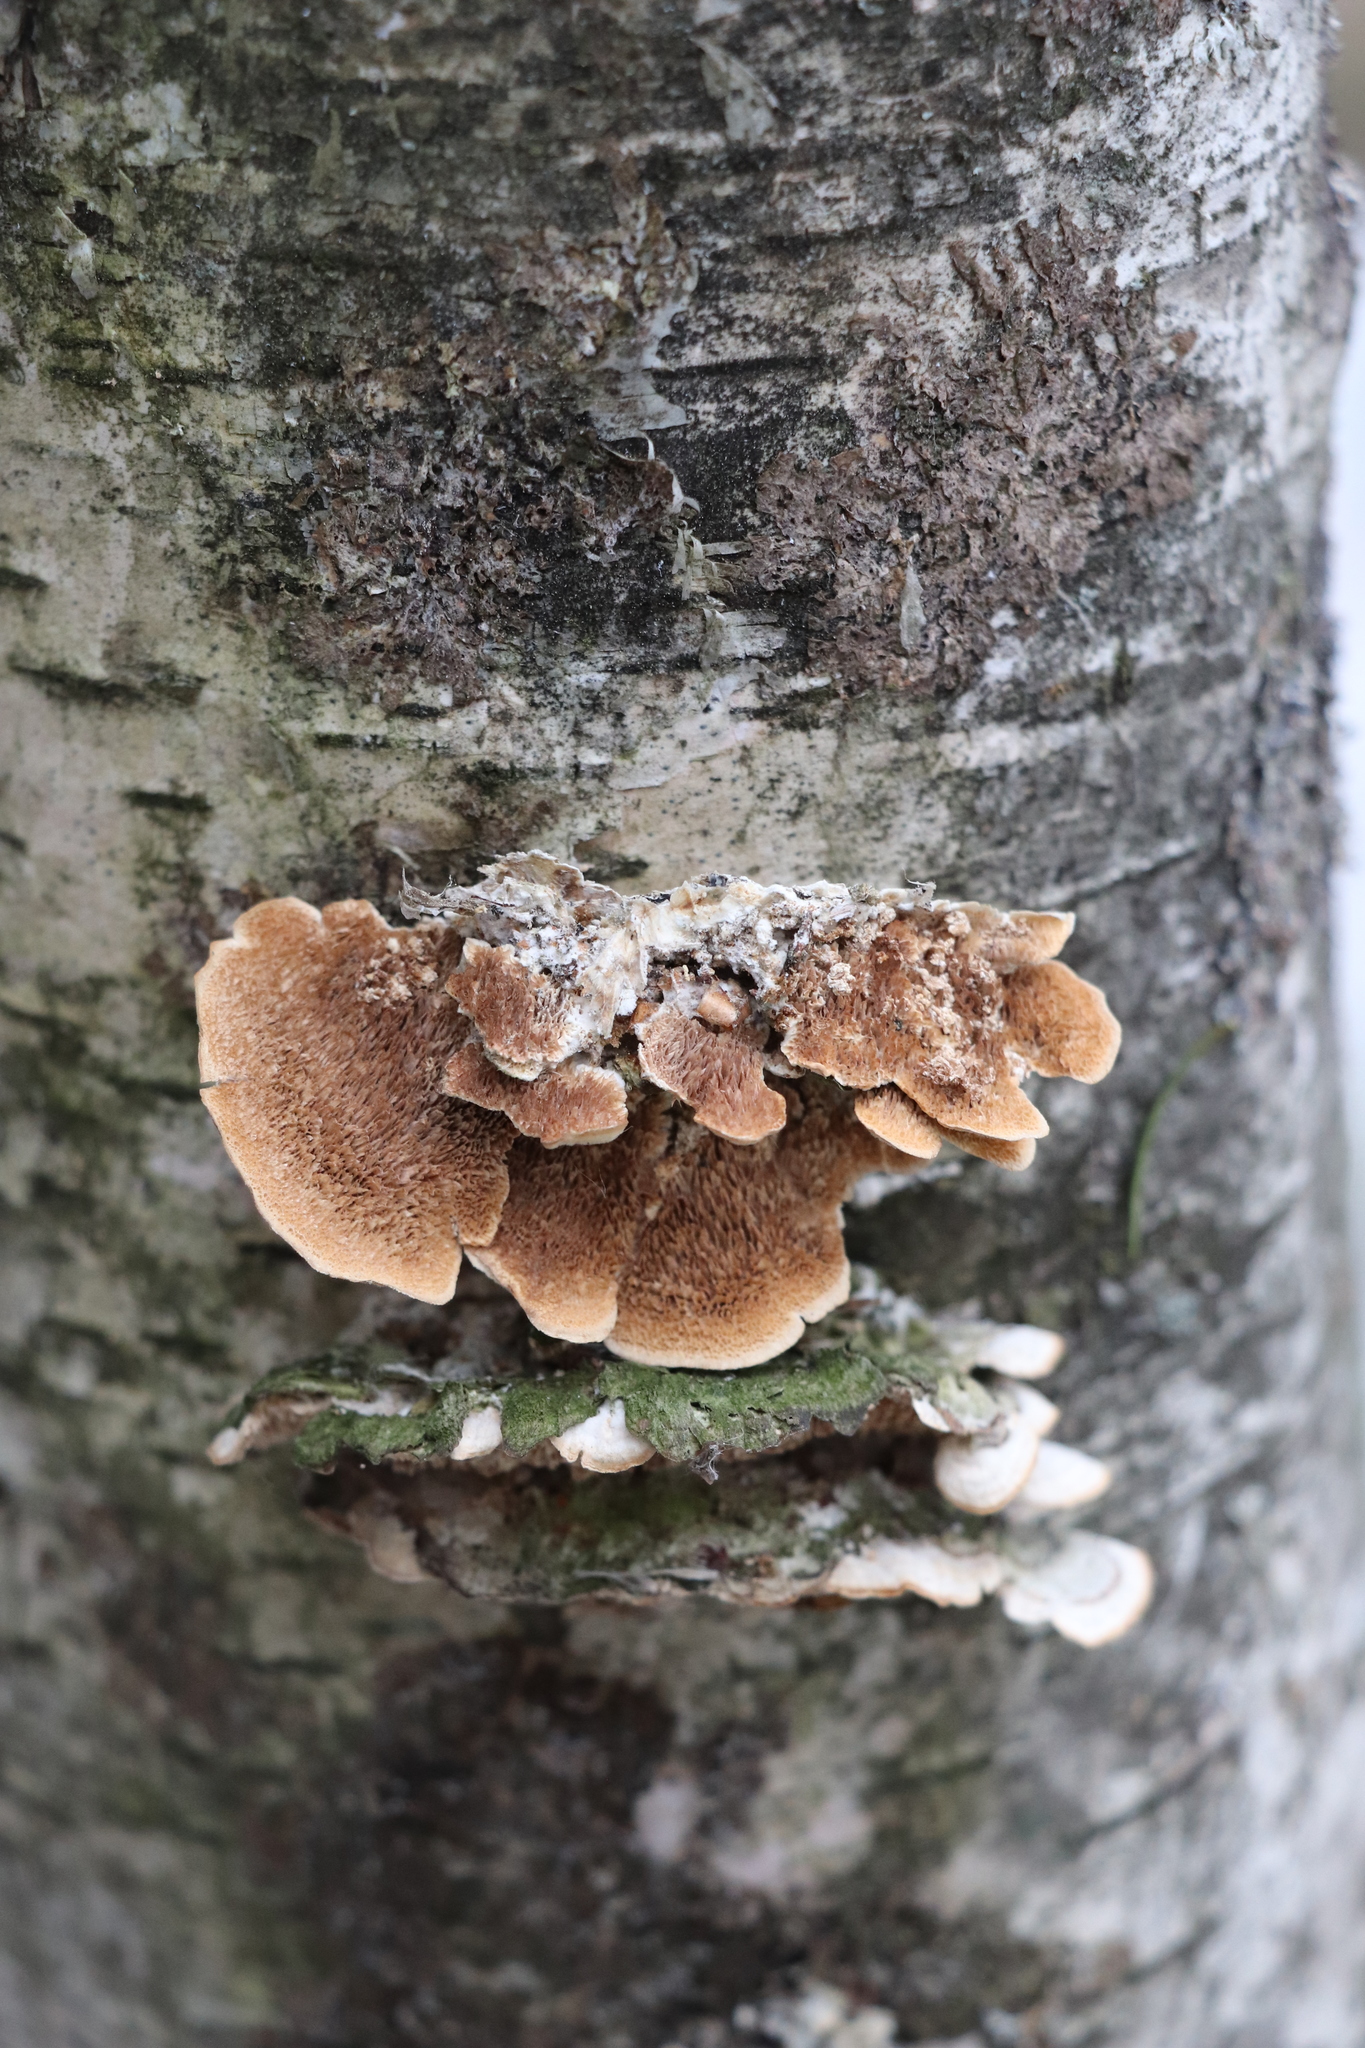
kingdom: Fungi
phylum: Basidiomycota
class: Agaricomycetes
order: Hymenochaetales
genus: Trichaptum
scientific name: Trichaptum biforme
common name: Violet-toothed polypore
